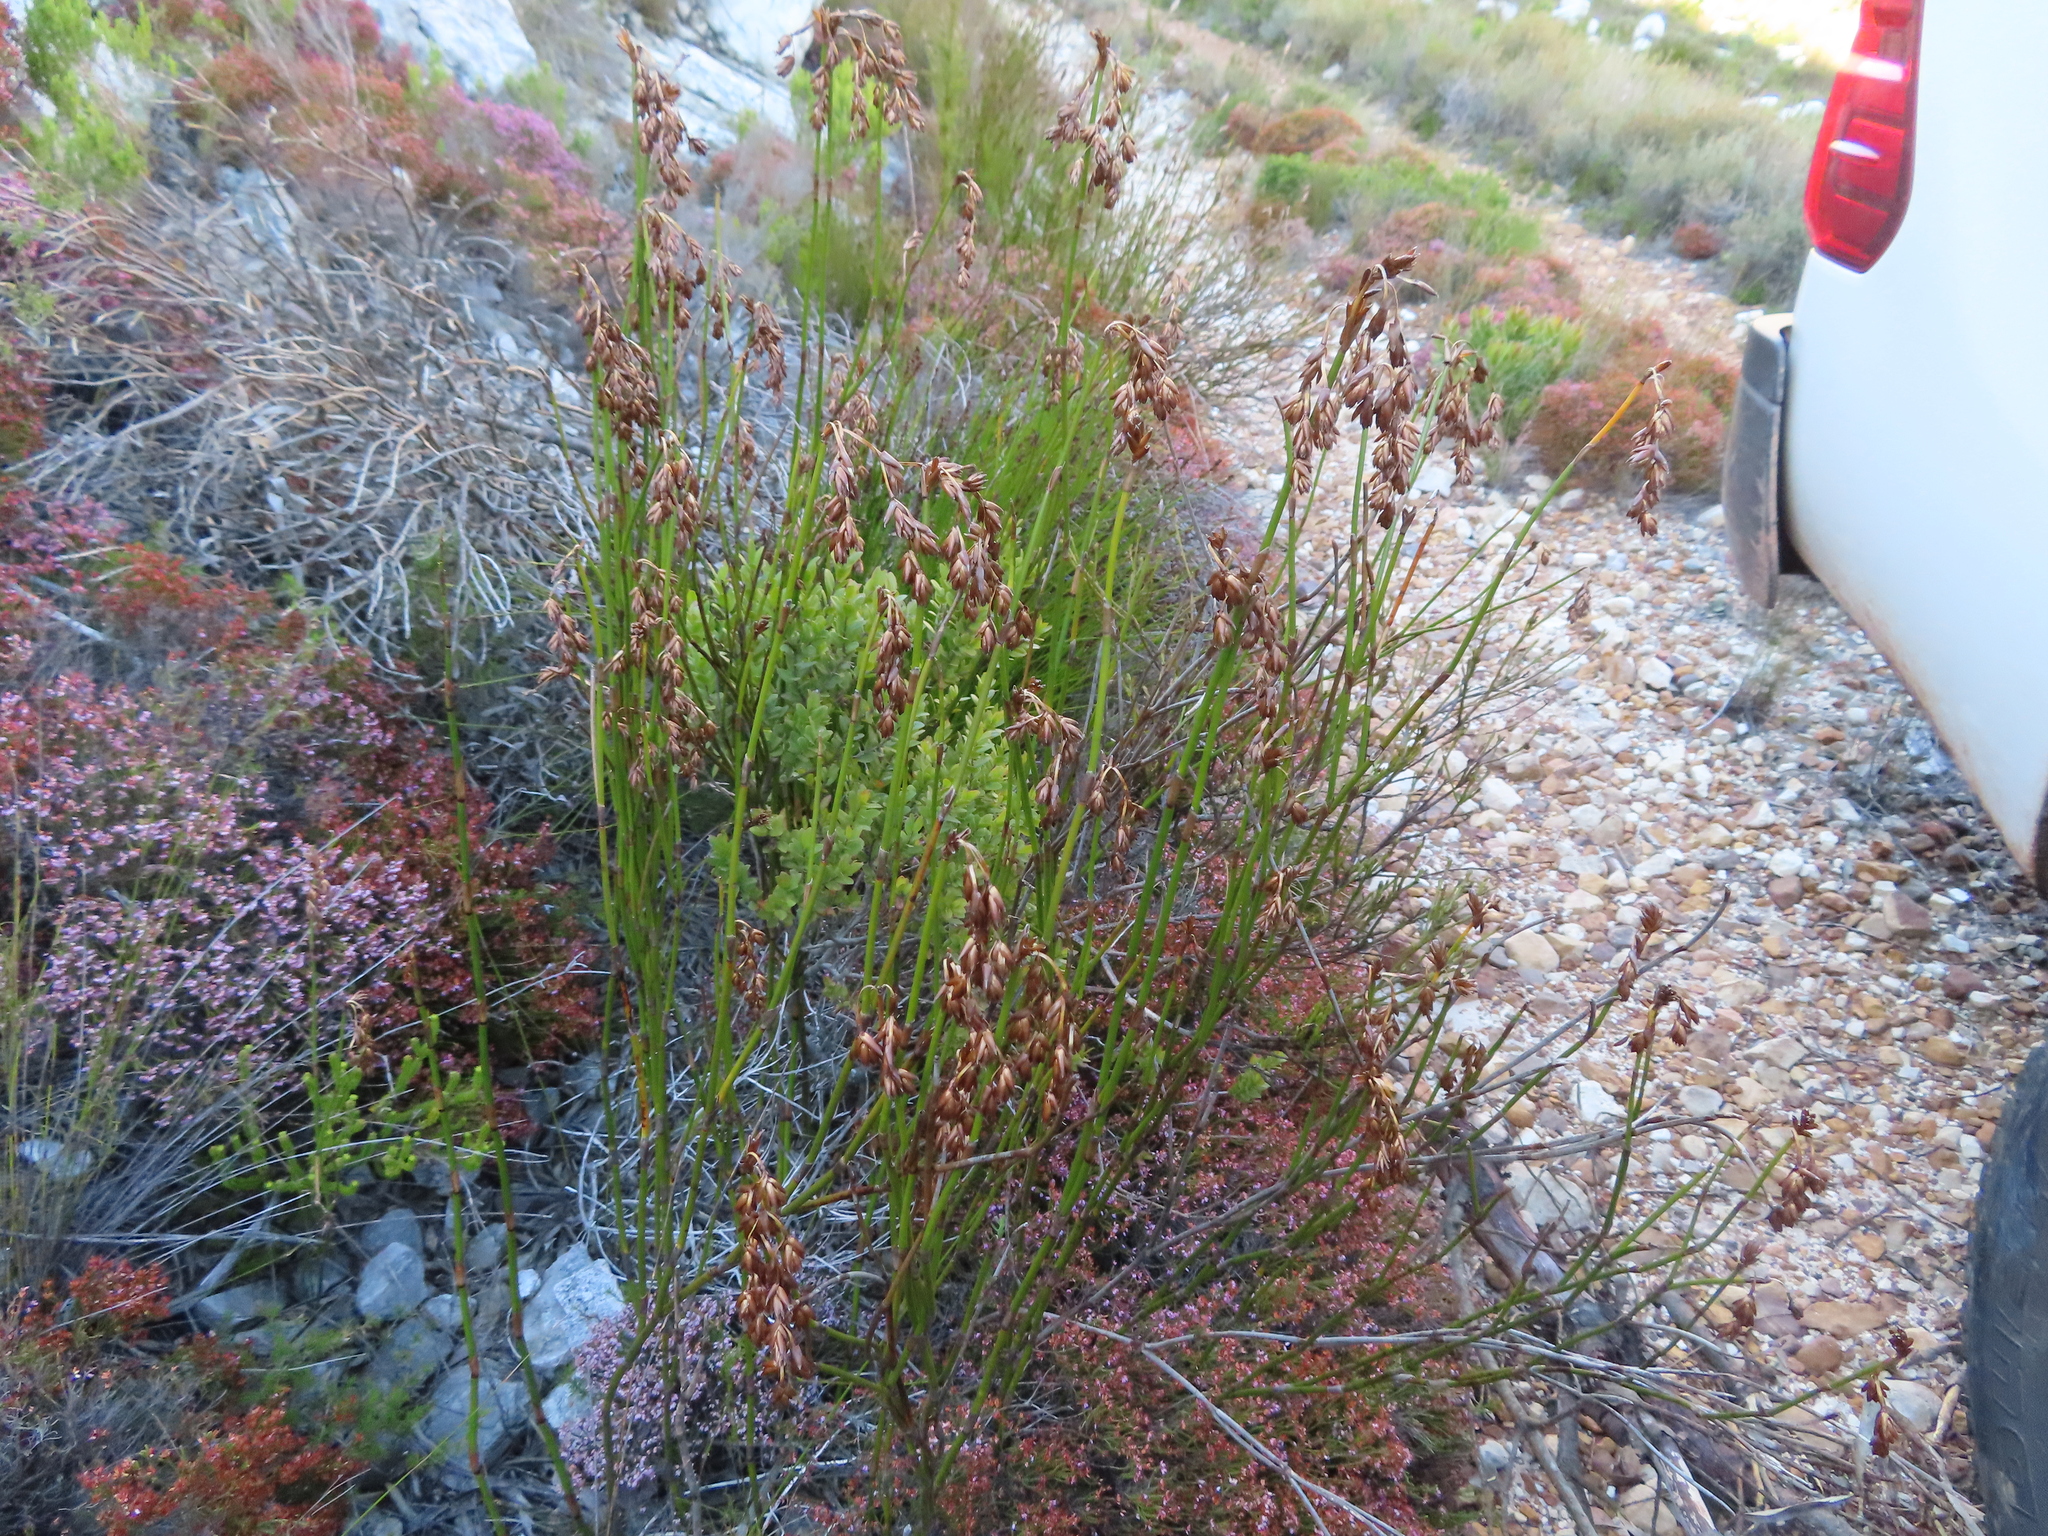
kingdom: Plantae
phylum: Tracheophyta
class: Liliopsida
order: Poales
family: Restionaceae
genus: Restio
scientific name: Restio egregius
